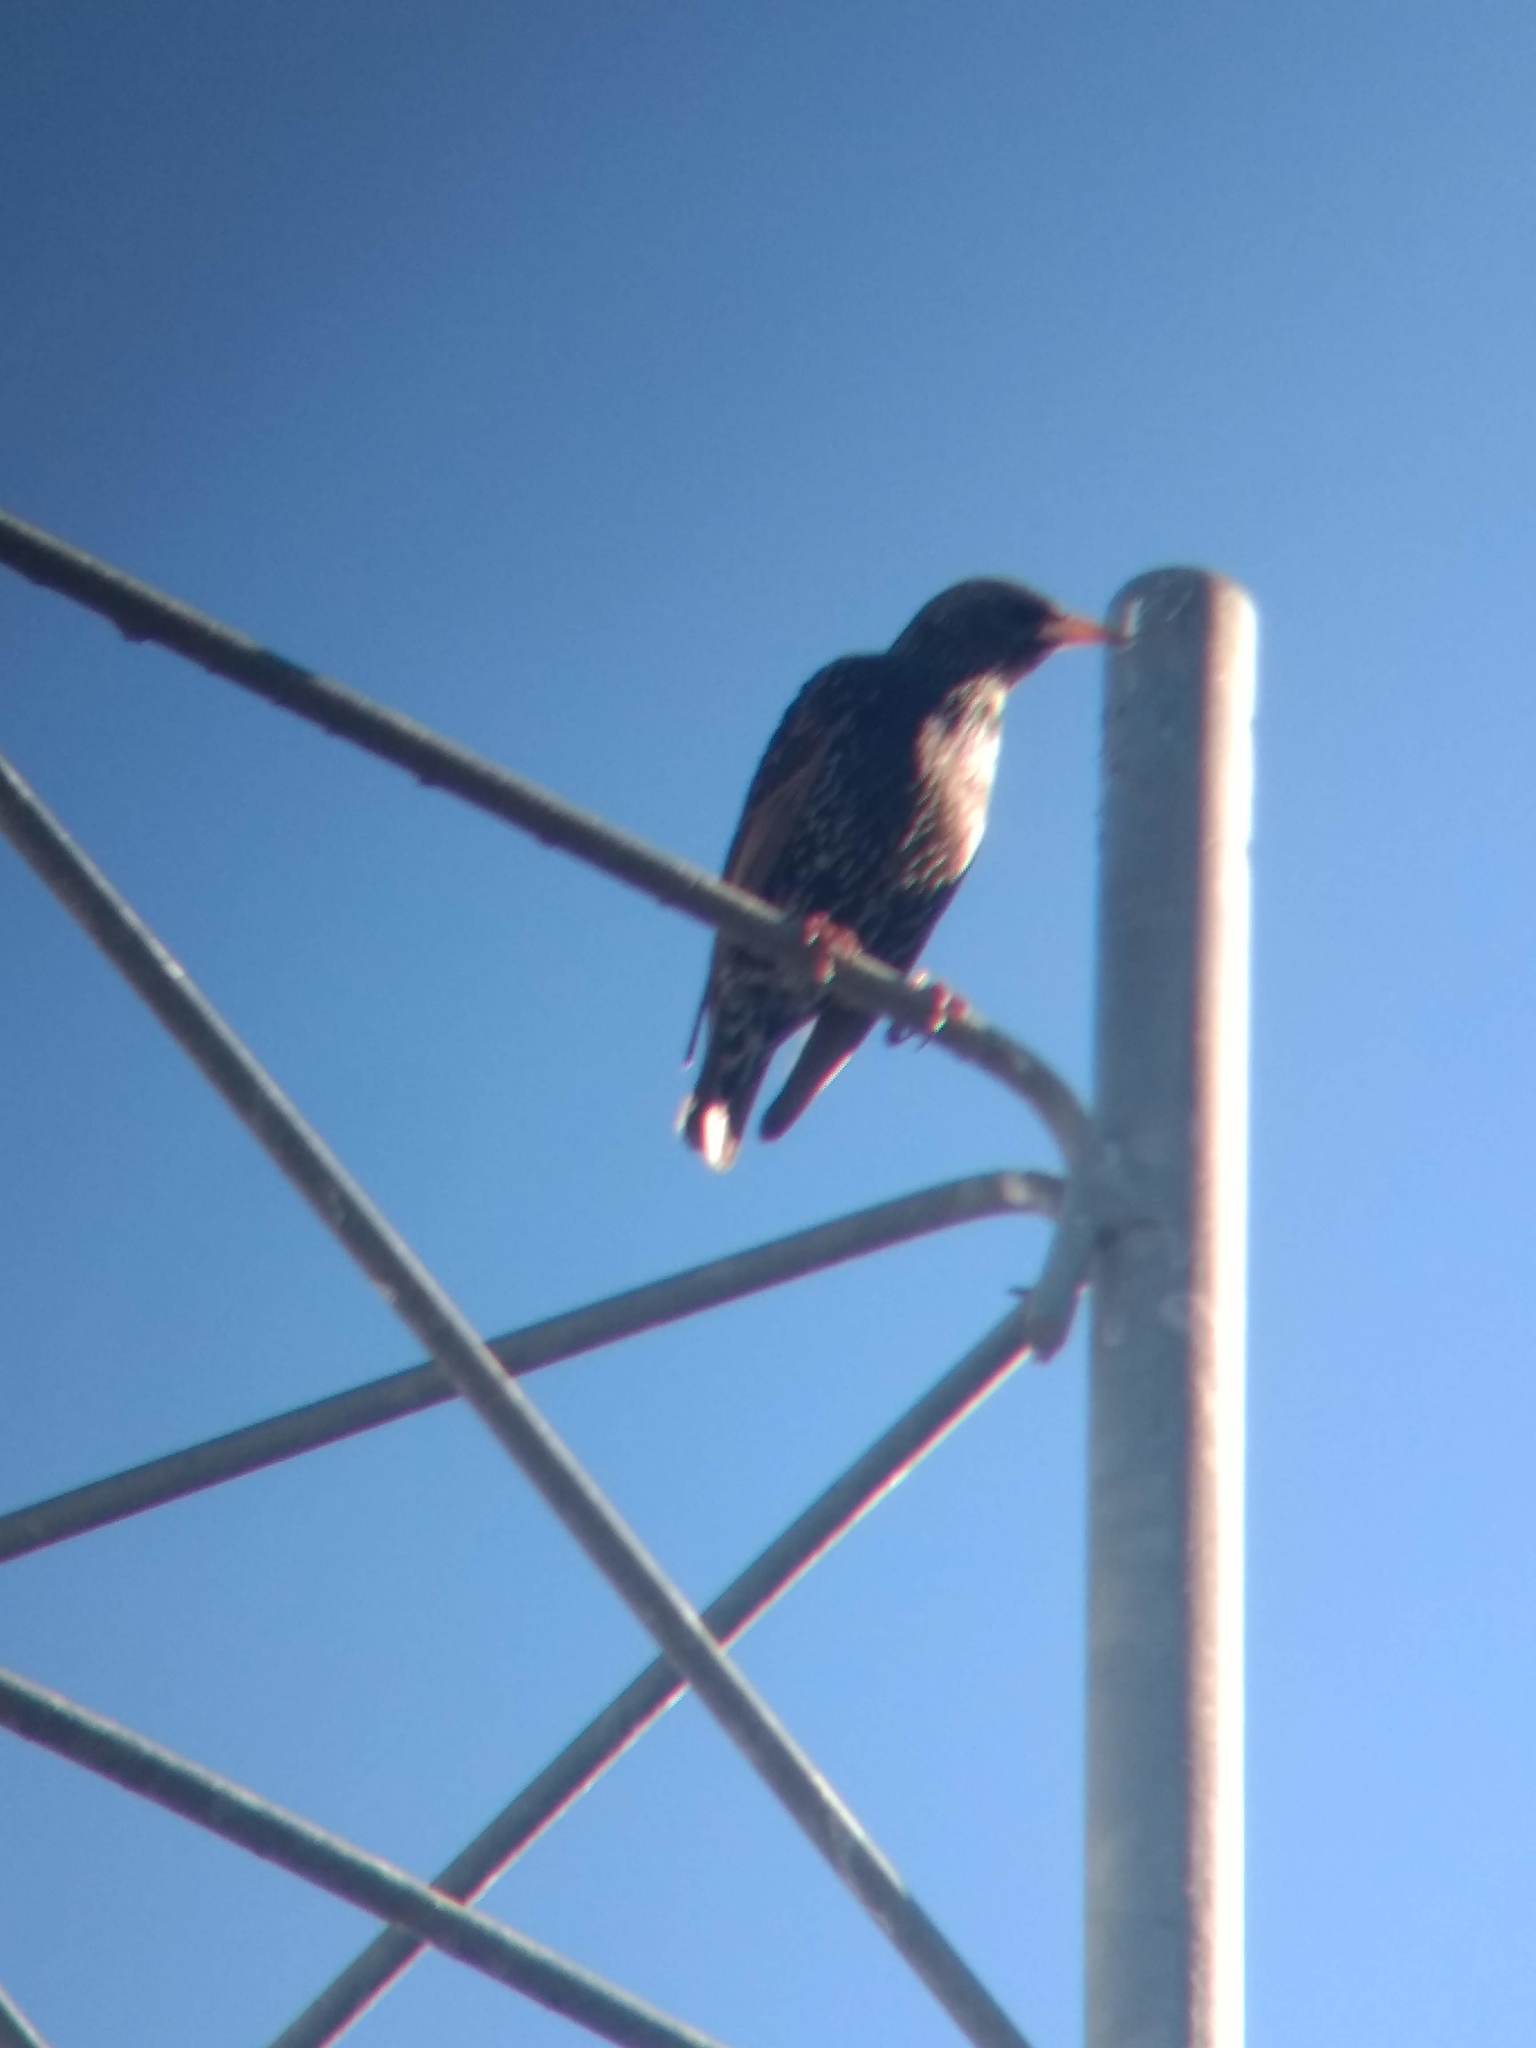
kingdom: Animalia
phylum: Chordata
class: Aves
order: Passeriformes
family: Sturnidae
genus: Sturnus
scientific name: Sturnus vulgaris
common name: Common starling
